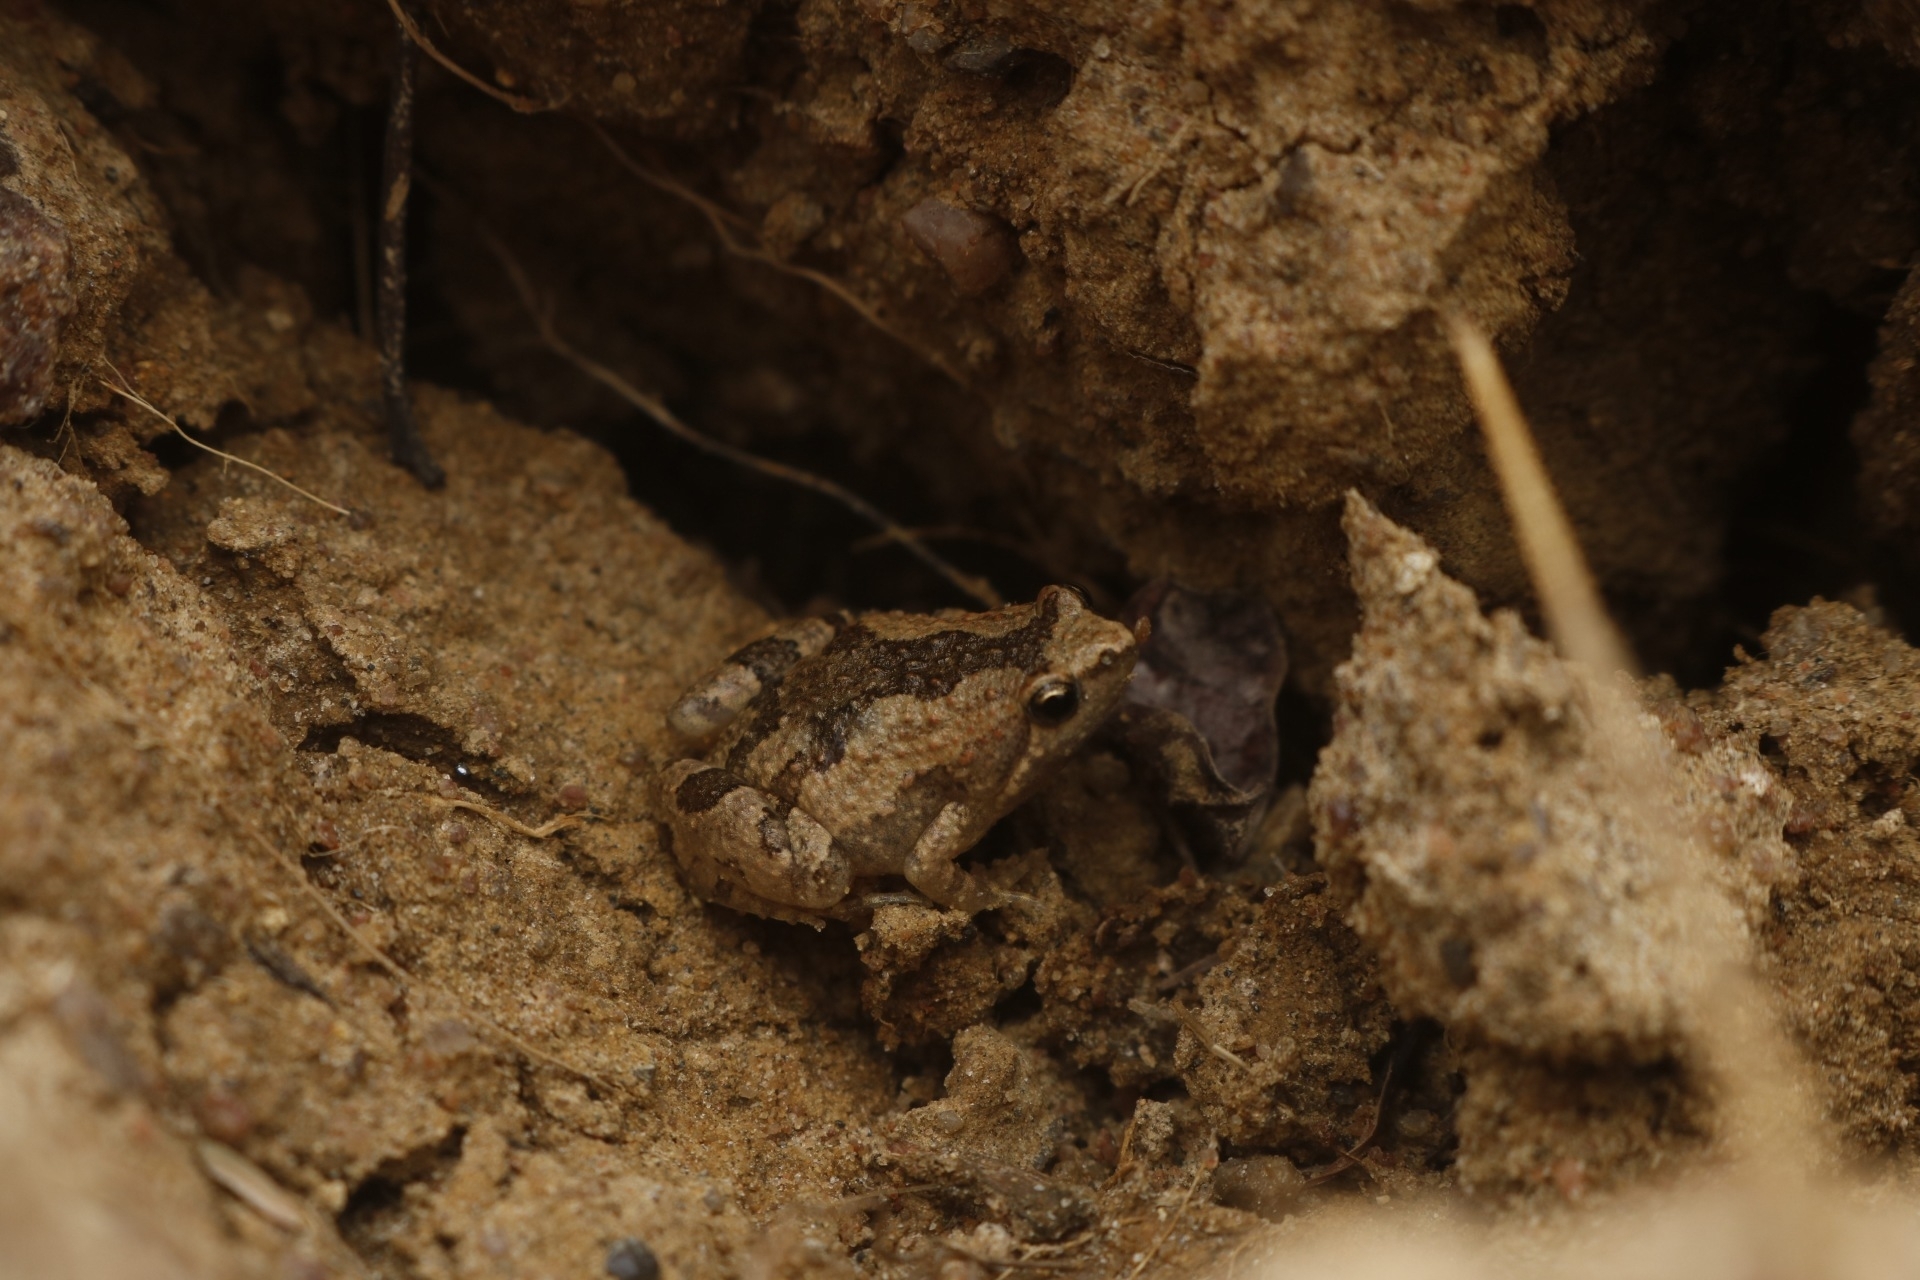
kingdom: Animalia
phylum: Chordata
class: Amphibia
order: Anura
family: Microhylidae
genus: Microhyla
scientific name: Microhyla ornata
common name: Ant frog
